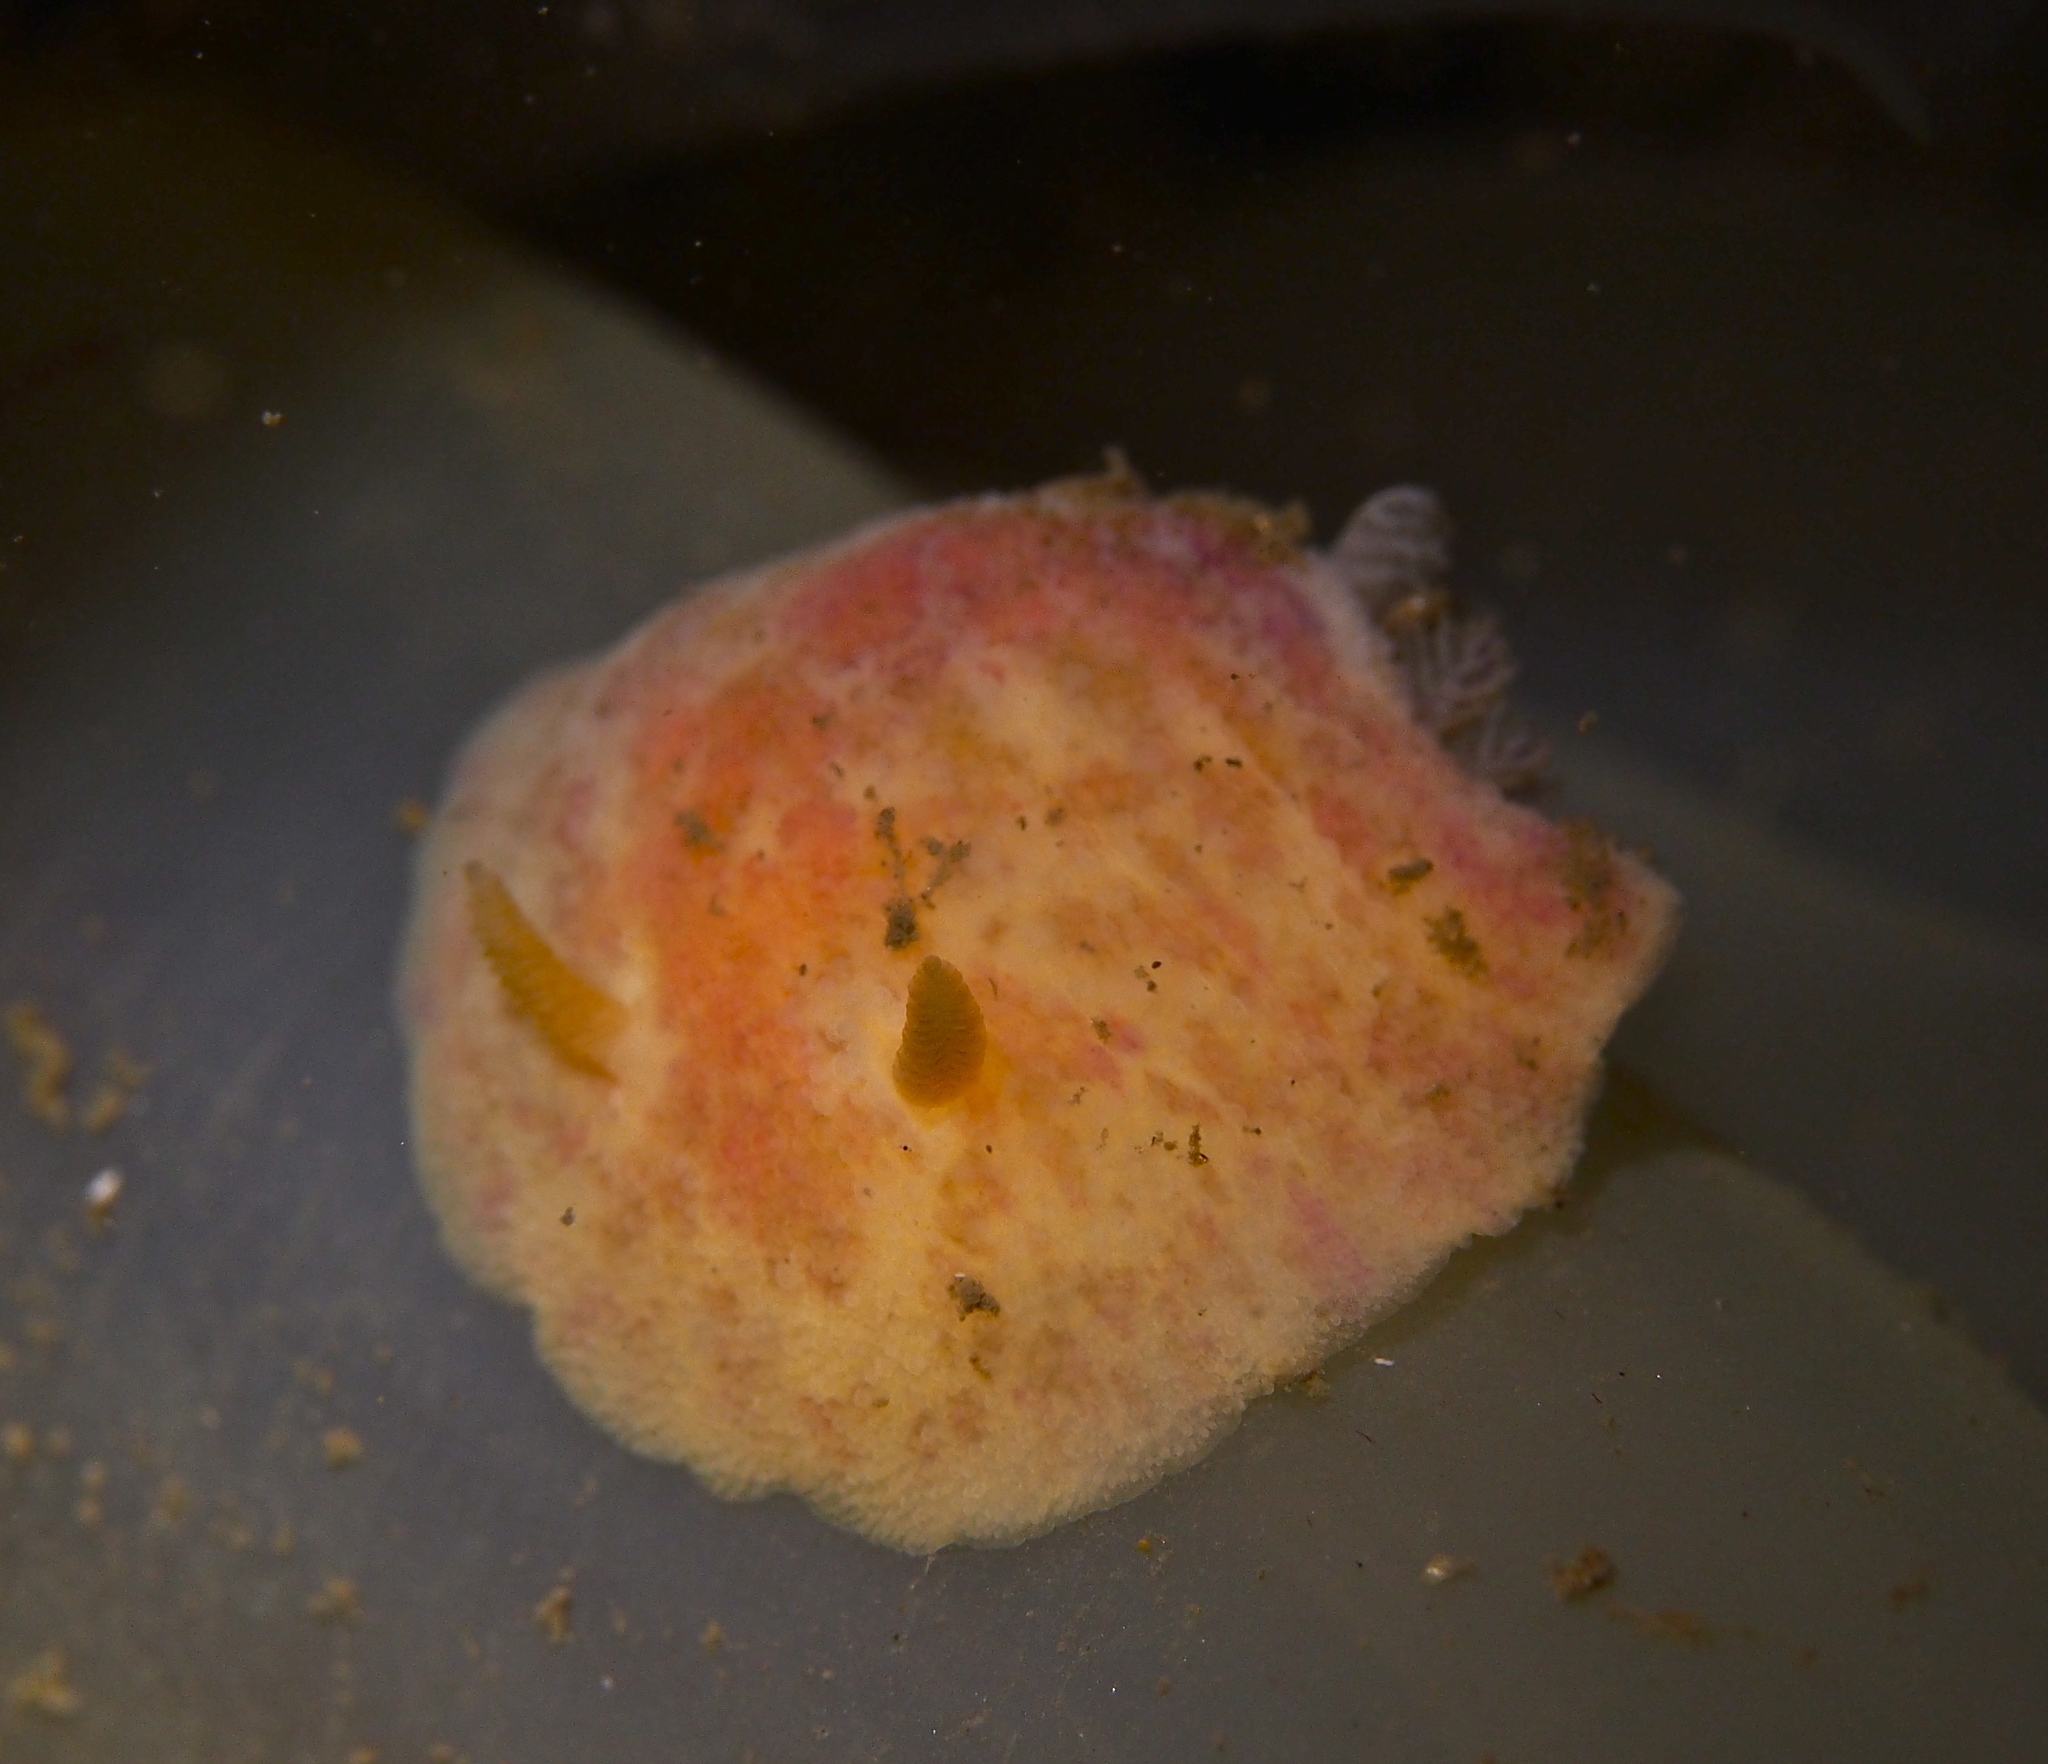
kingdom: Animalia
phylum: Mollusca
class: Gastropoda
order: Nudibranchia
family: Dorididae
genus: Doris
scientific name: Doris pseudoargus
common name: Sea lemon
